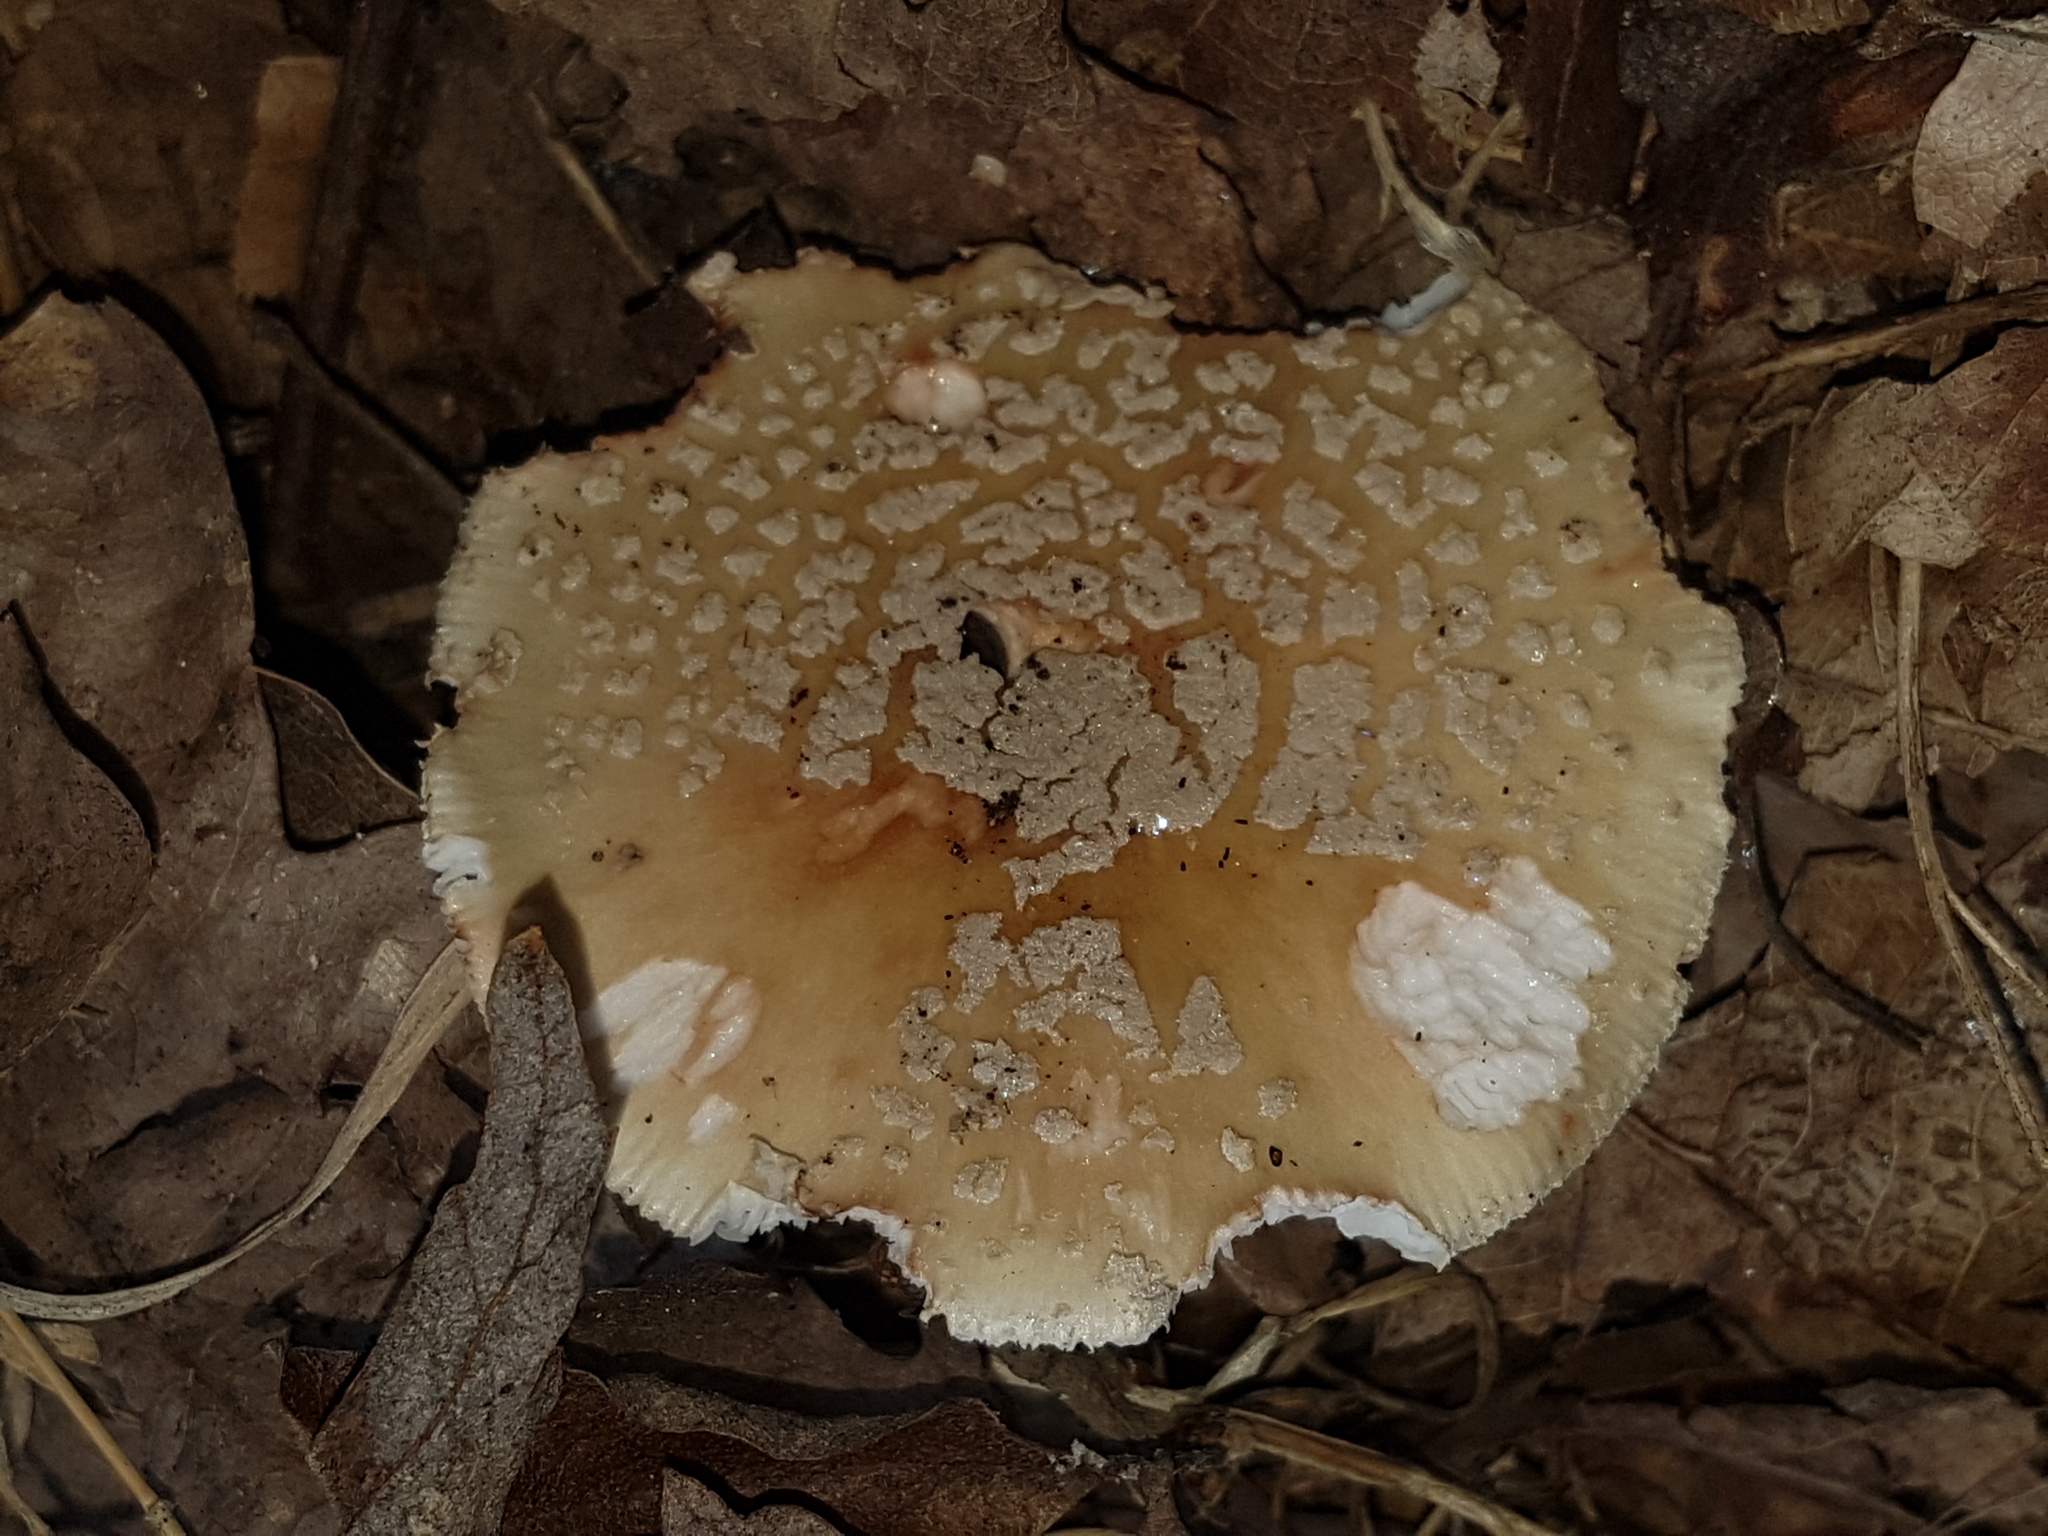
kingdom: Fungi
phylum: Basidiomycota
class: Agaricomycetes
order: Agaricales
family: Amanitaceae
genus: Amanita
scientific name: Amanita rubescens
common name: Blusher
